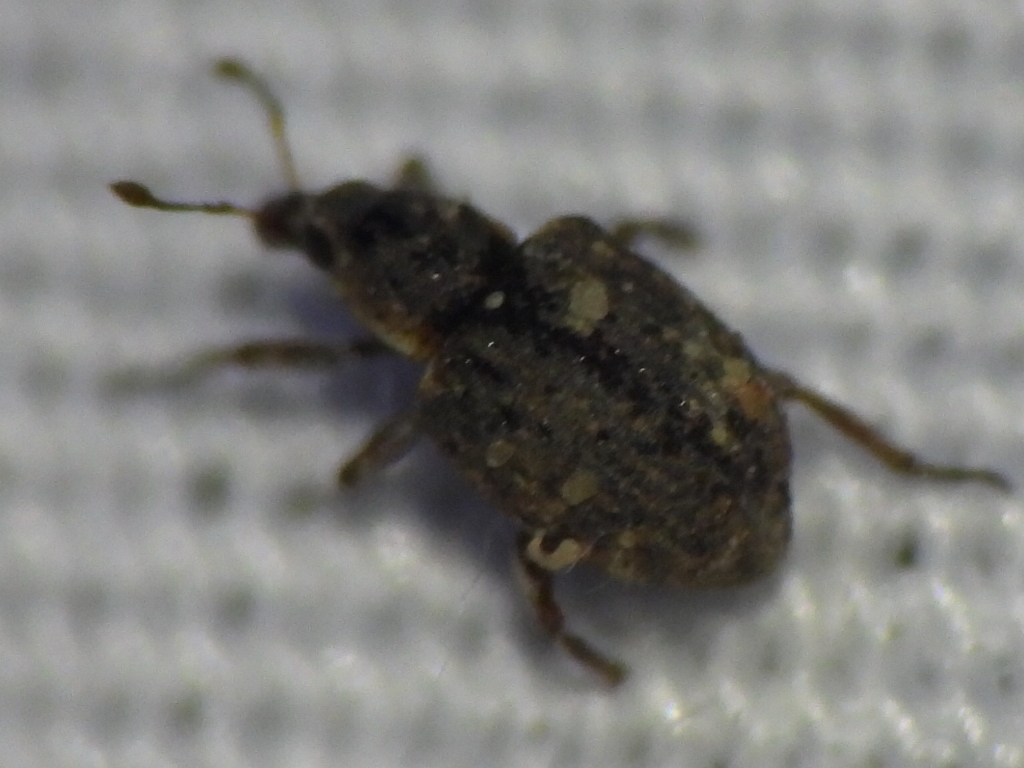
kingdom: Animalia
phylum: Arthropoda
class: Insecta
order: Coleoptera
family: Brachyceridae
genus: Stenopelmus
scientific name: Stenopelmus rufinasus
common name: Azolla weevil
